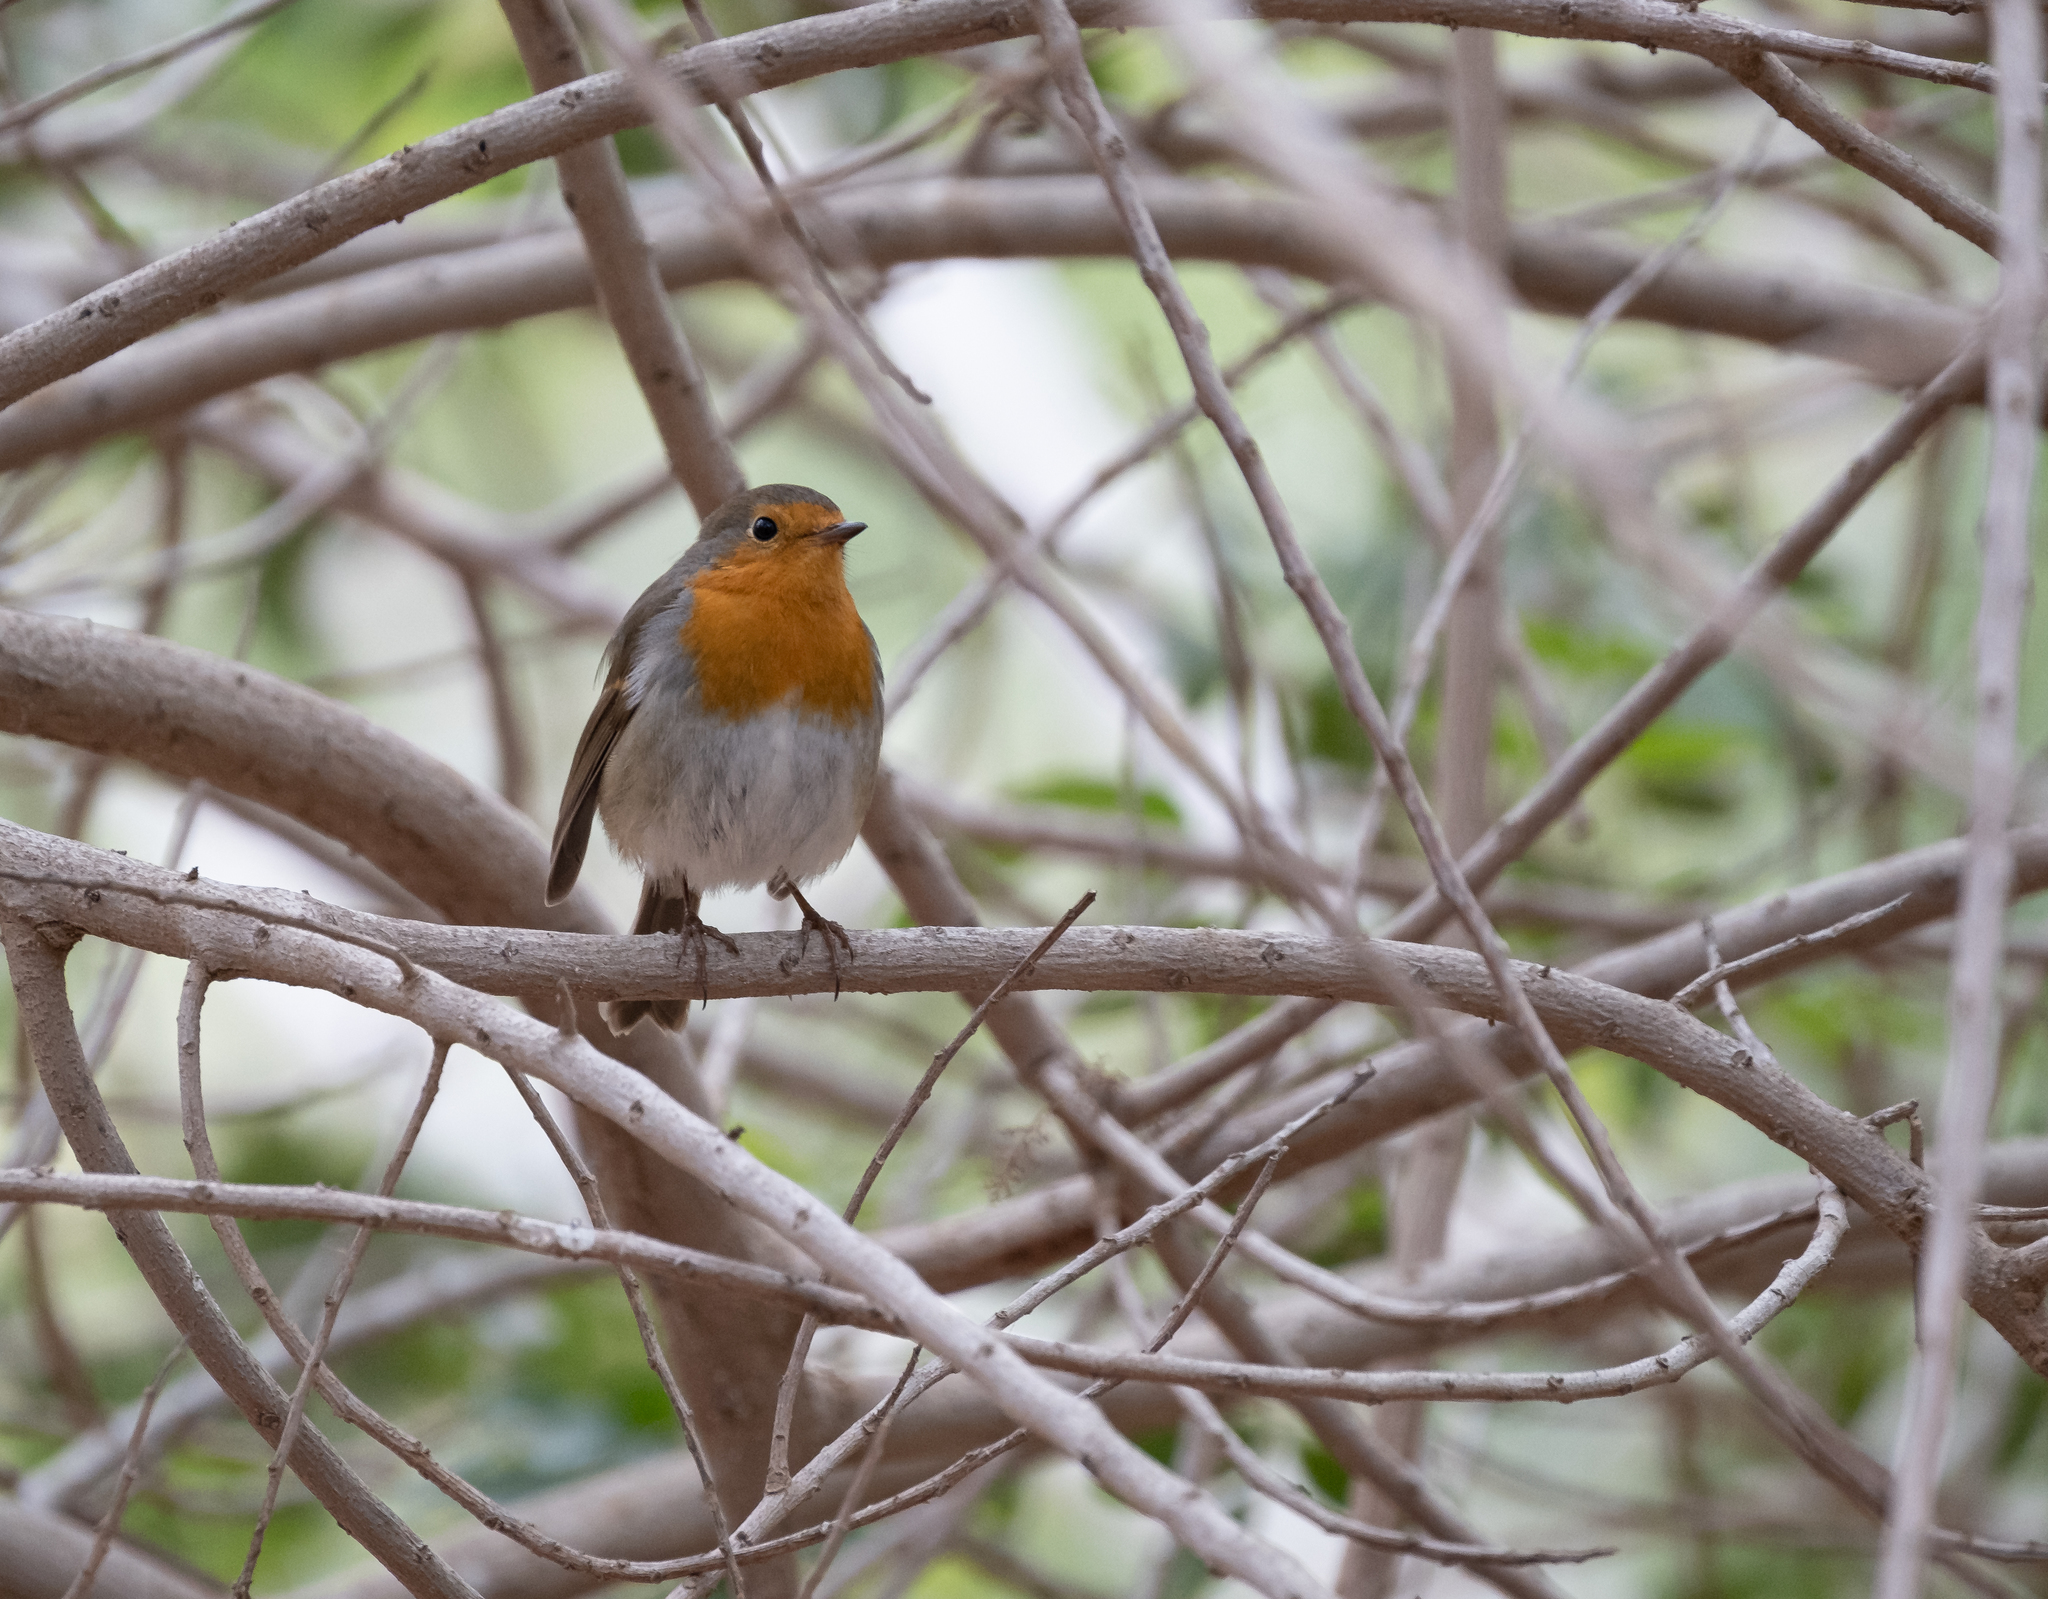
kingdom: Animalia
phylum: Chordata
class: Aves
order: Passeriformes
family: Muscicapidae
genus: Erithacus
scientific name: Erithacus rubecula
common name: European robin
